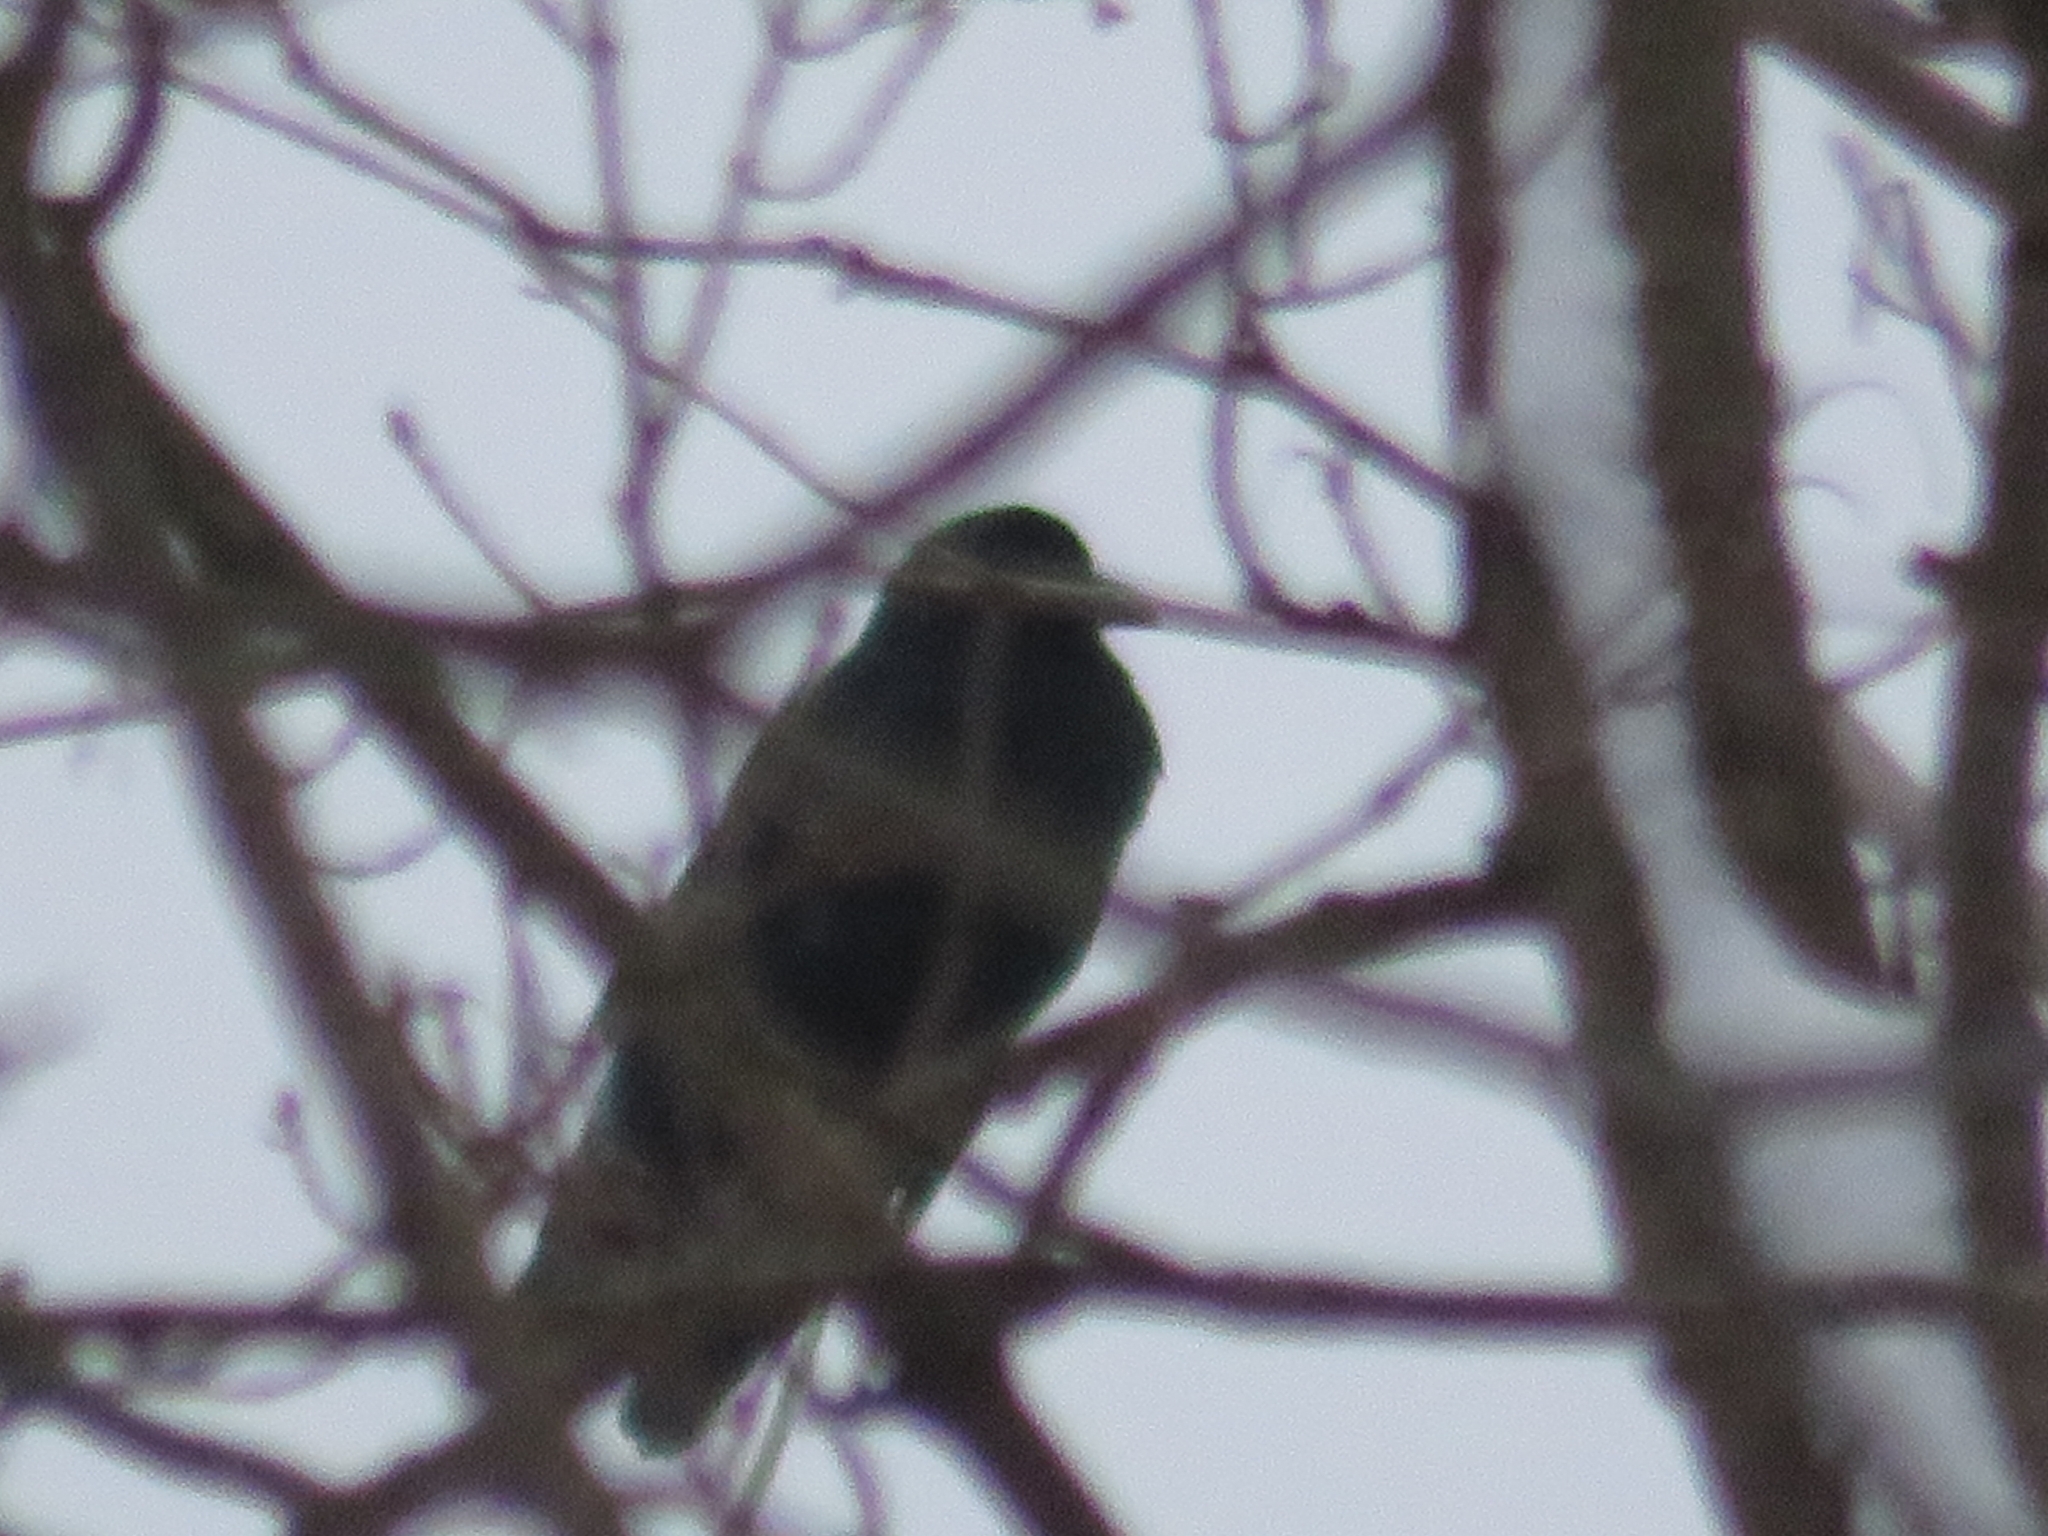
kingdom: Animalia
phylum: Chordata
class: Aves
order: Passeriformes
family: Corvidae
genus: Corvus
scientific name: Corvus brachyrhynchos
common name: American crow
